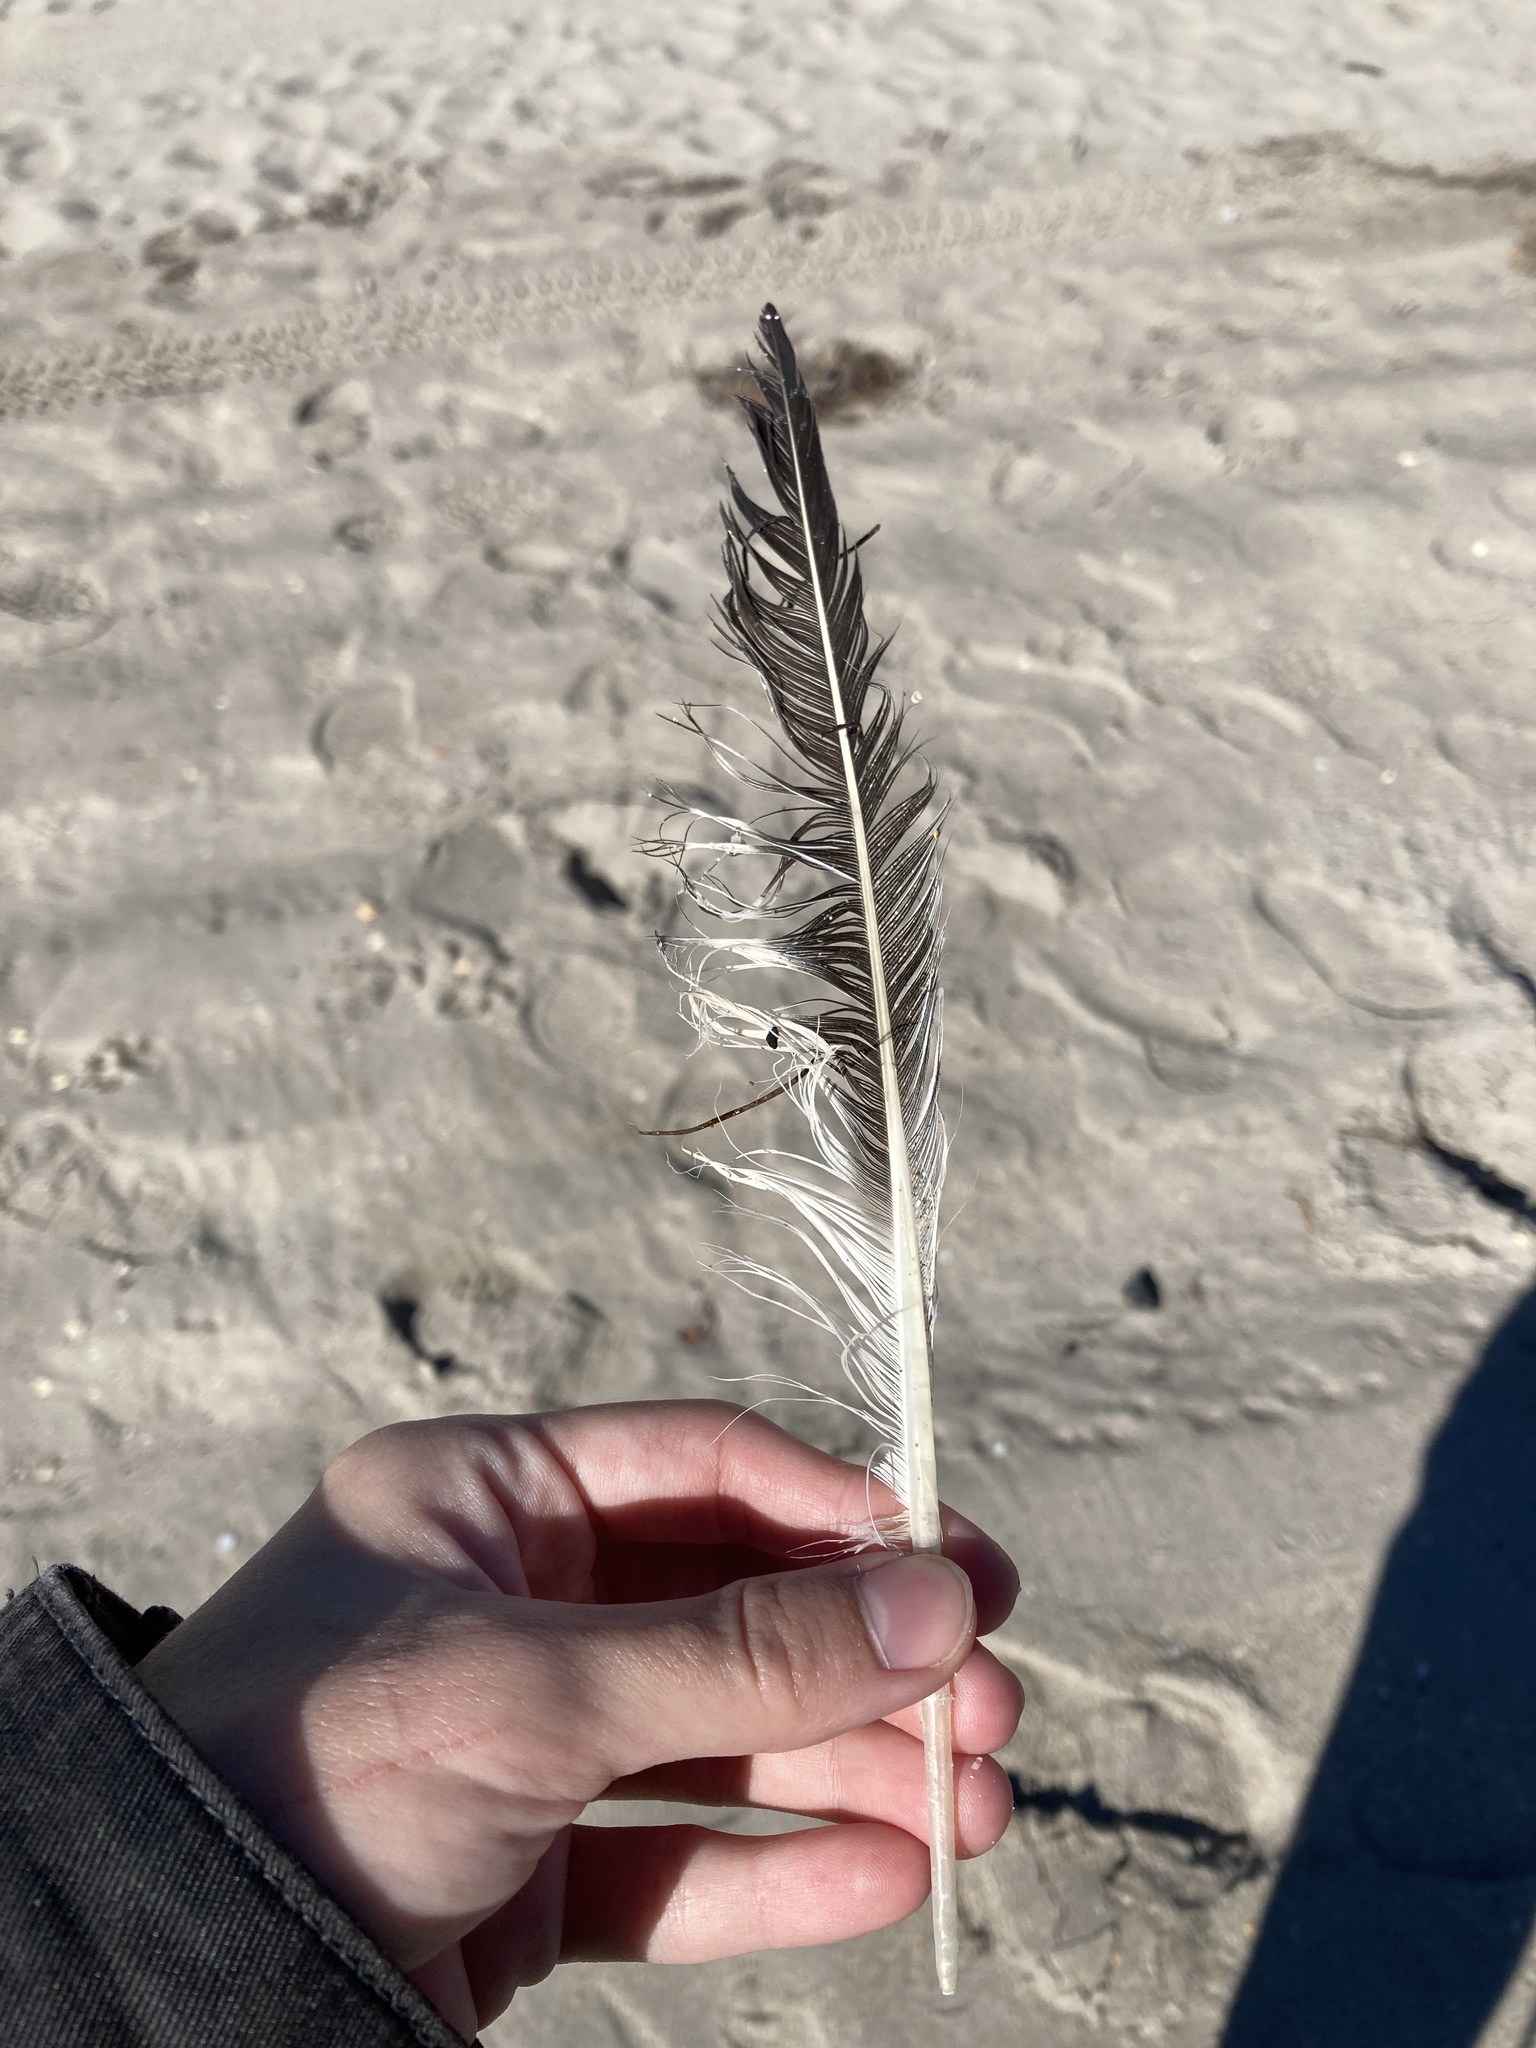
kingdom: Animalia
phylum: Chordata
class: Aves
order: Charadriiformes
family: Laridae
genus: Thalasseus
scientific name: Thalasseus maximus
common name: Royal tern
